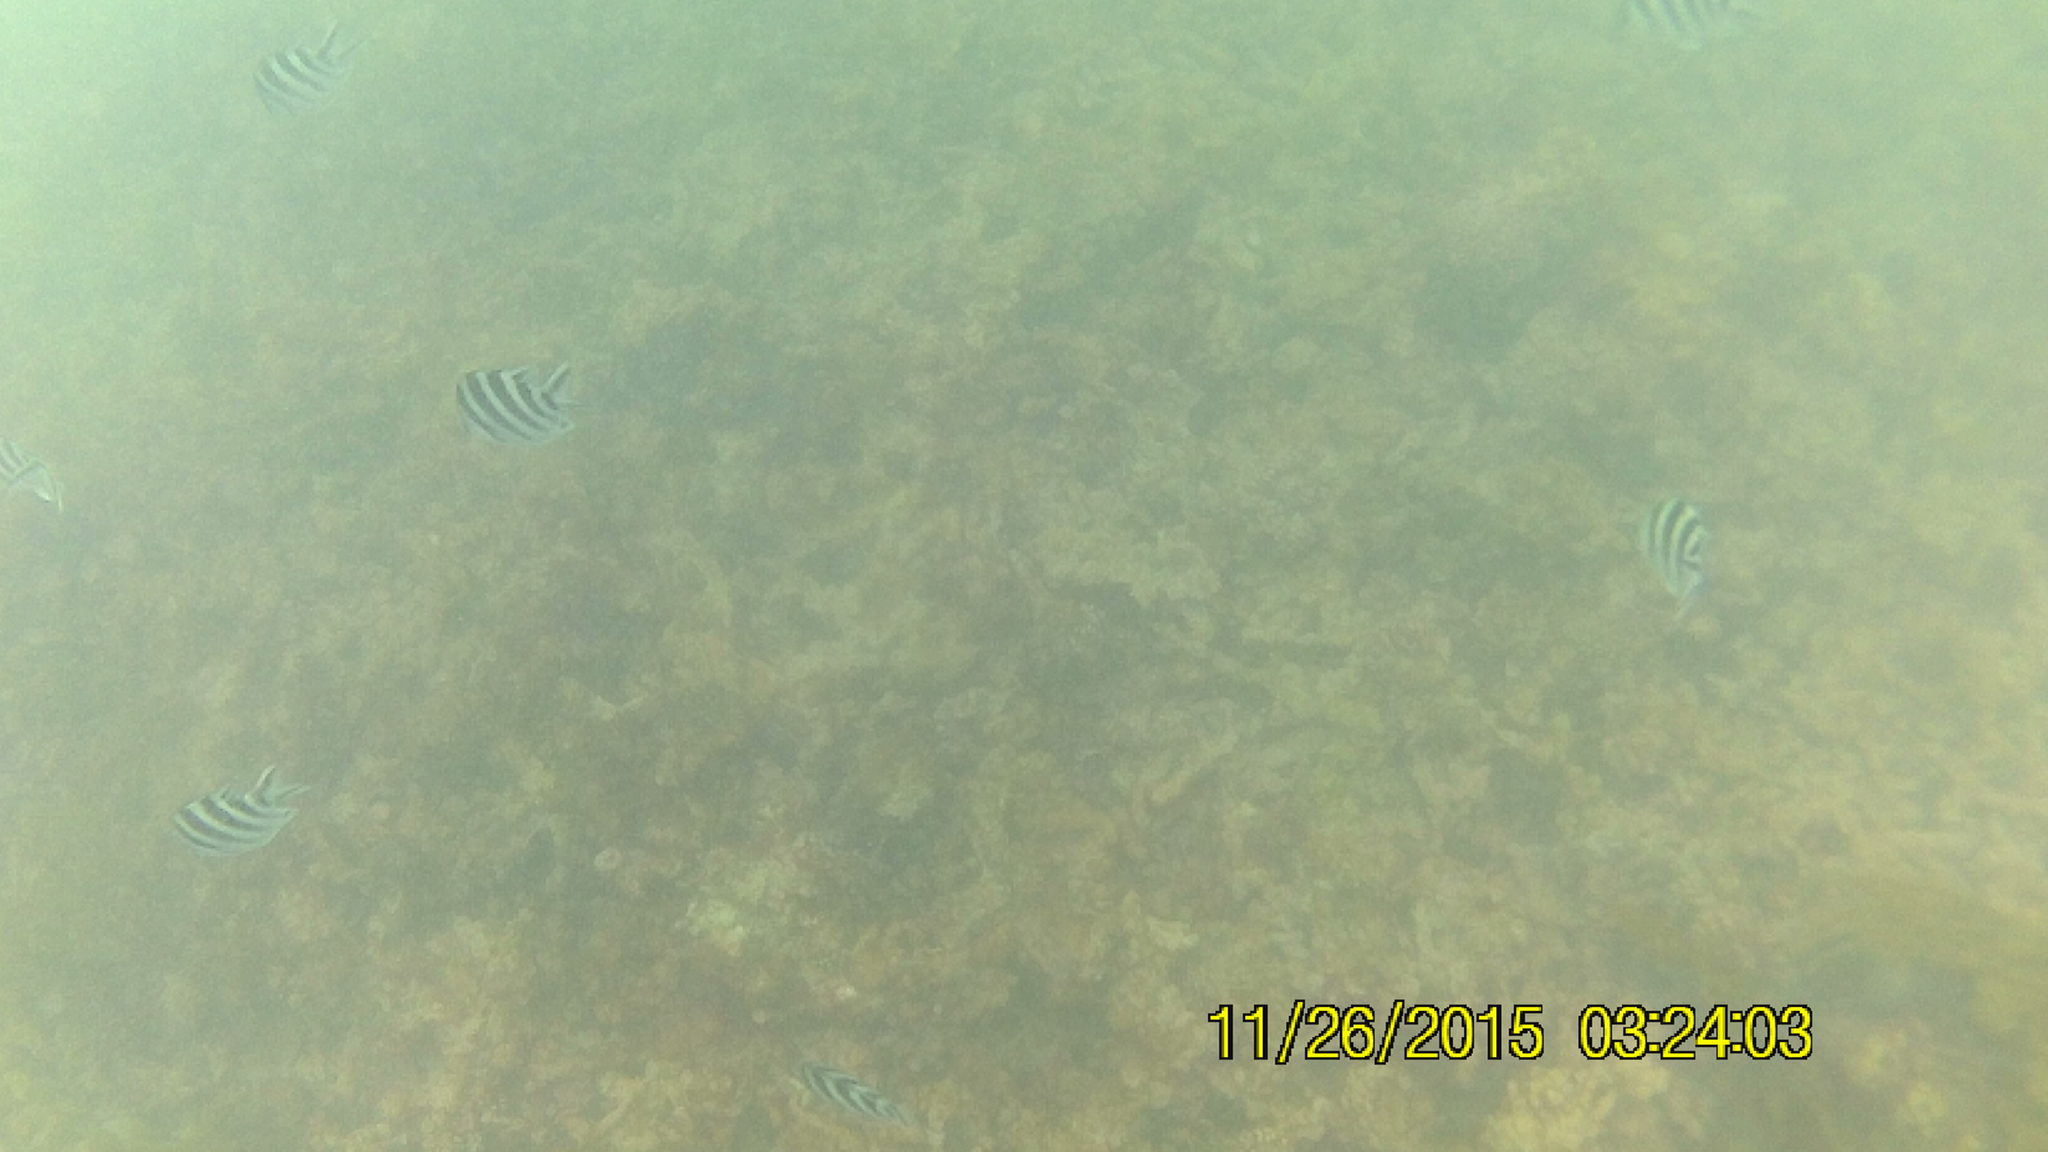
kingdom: Animalia
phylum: Chordata
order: Perciformes
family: Pomacentridae
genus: Abudefduf
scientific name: Abudefduf sexfasciatus
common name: Scissortail sergeant
